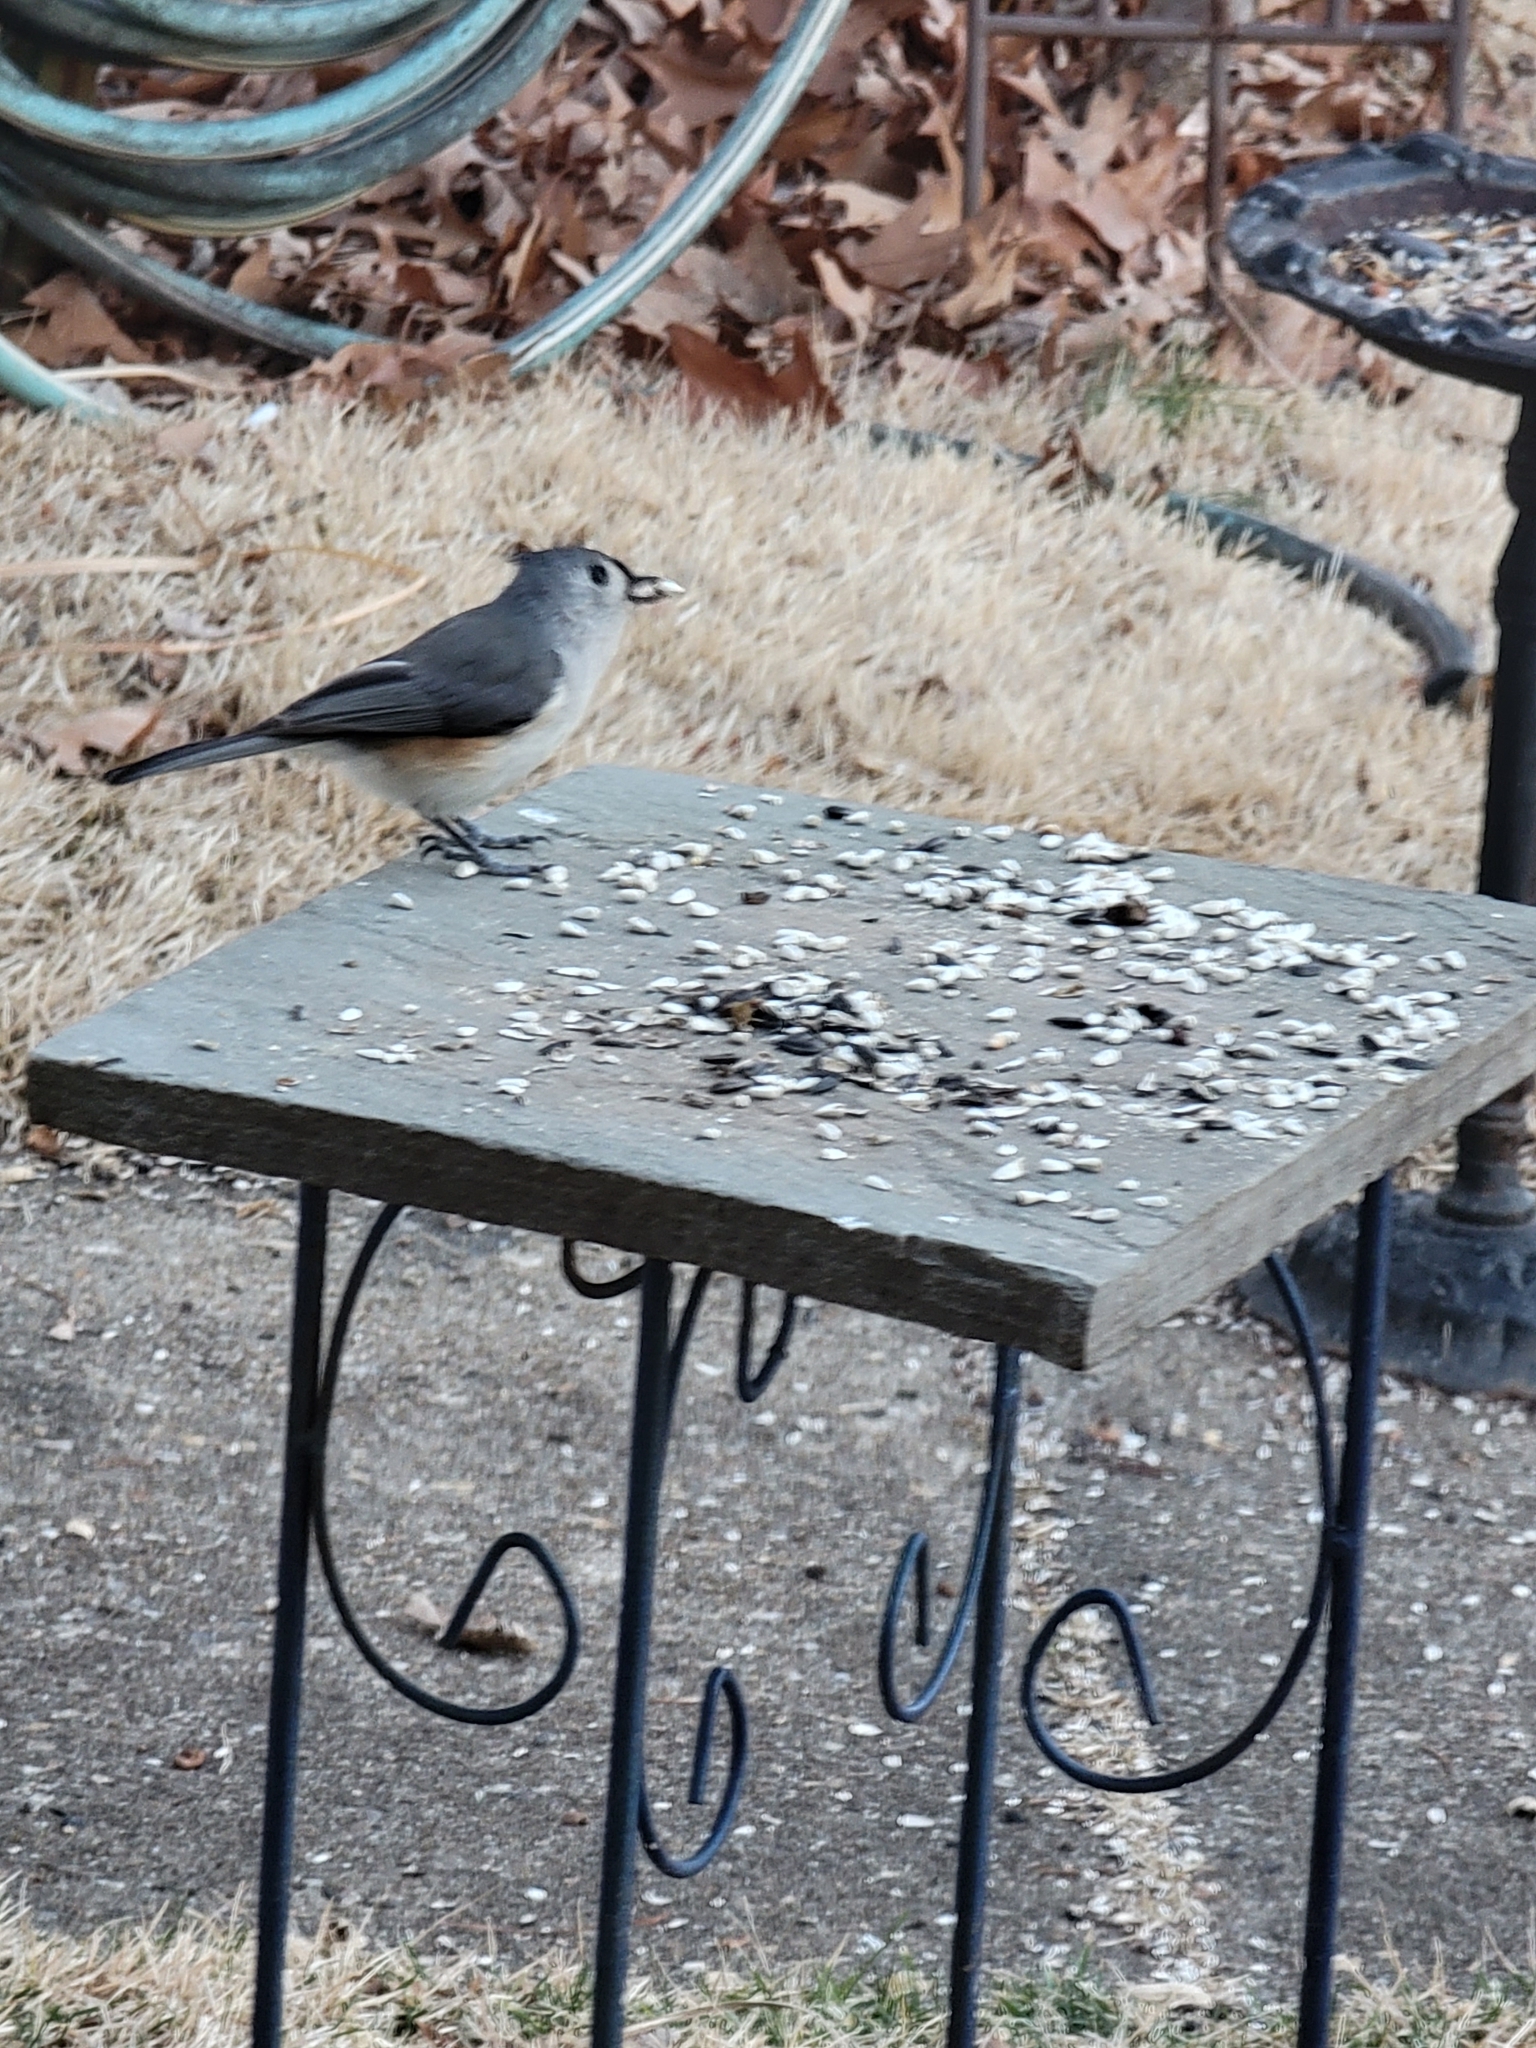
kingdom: Animalia
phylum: Chordata
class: Aves
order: Passeriformes
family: Paridae
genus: Baeolophus
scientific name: Baeolophus bicolor
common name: Tufted titmouse
